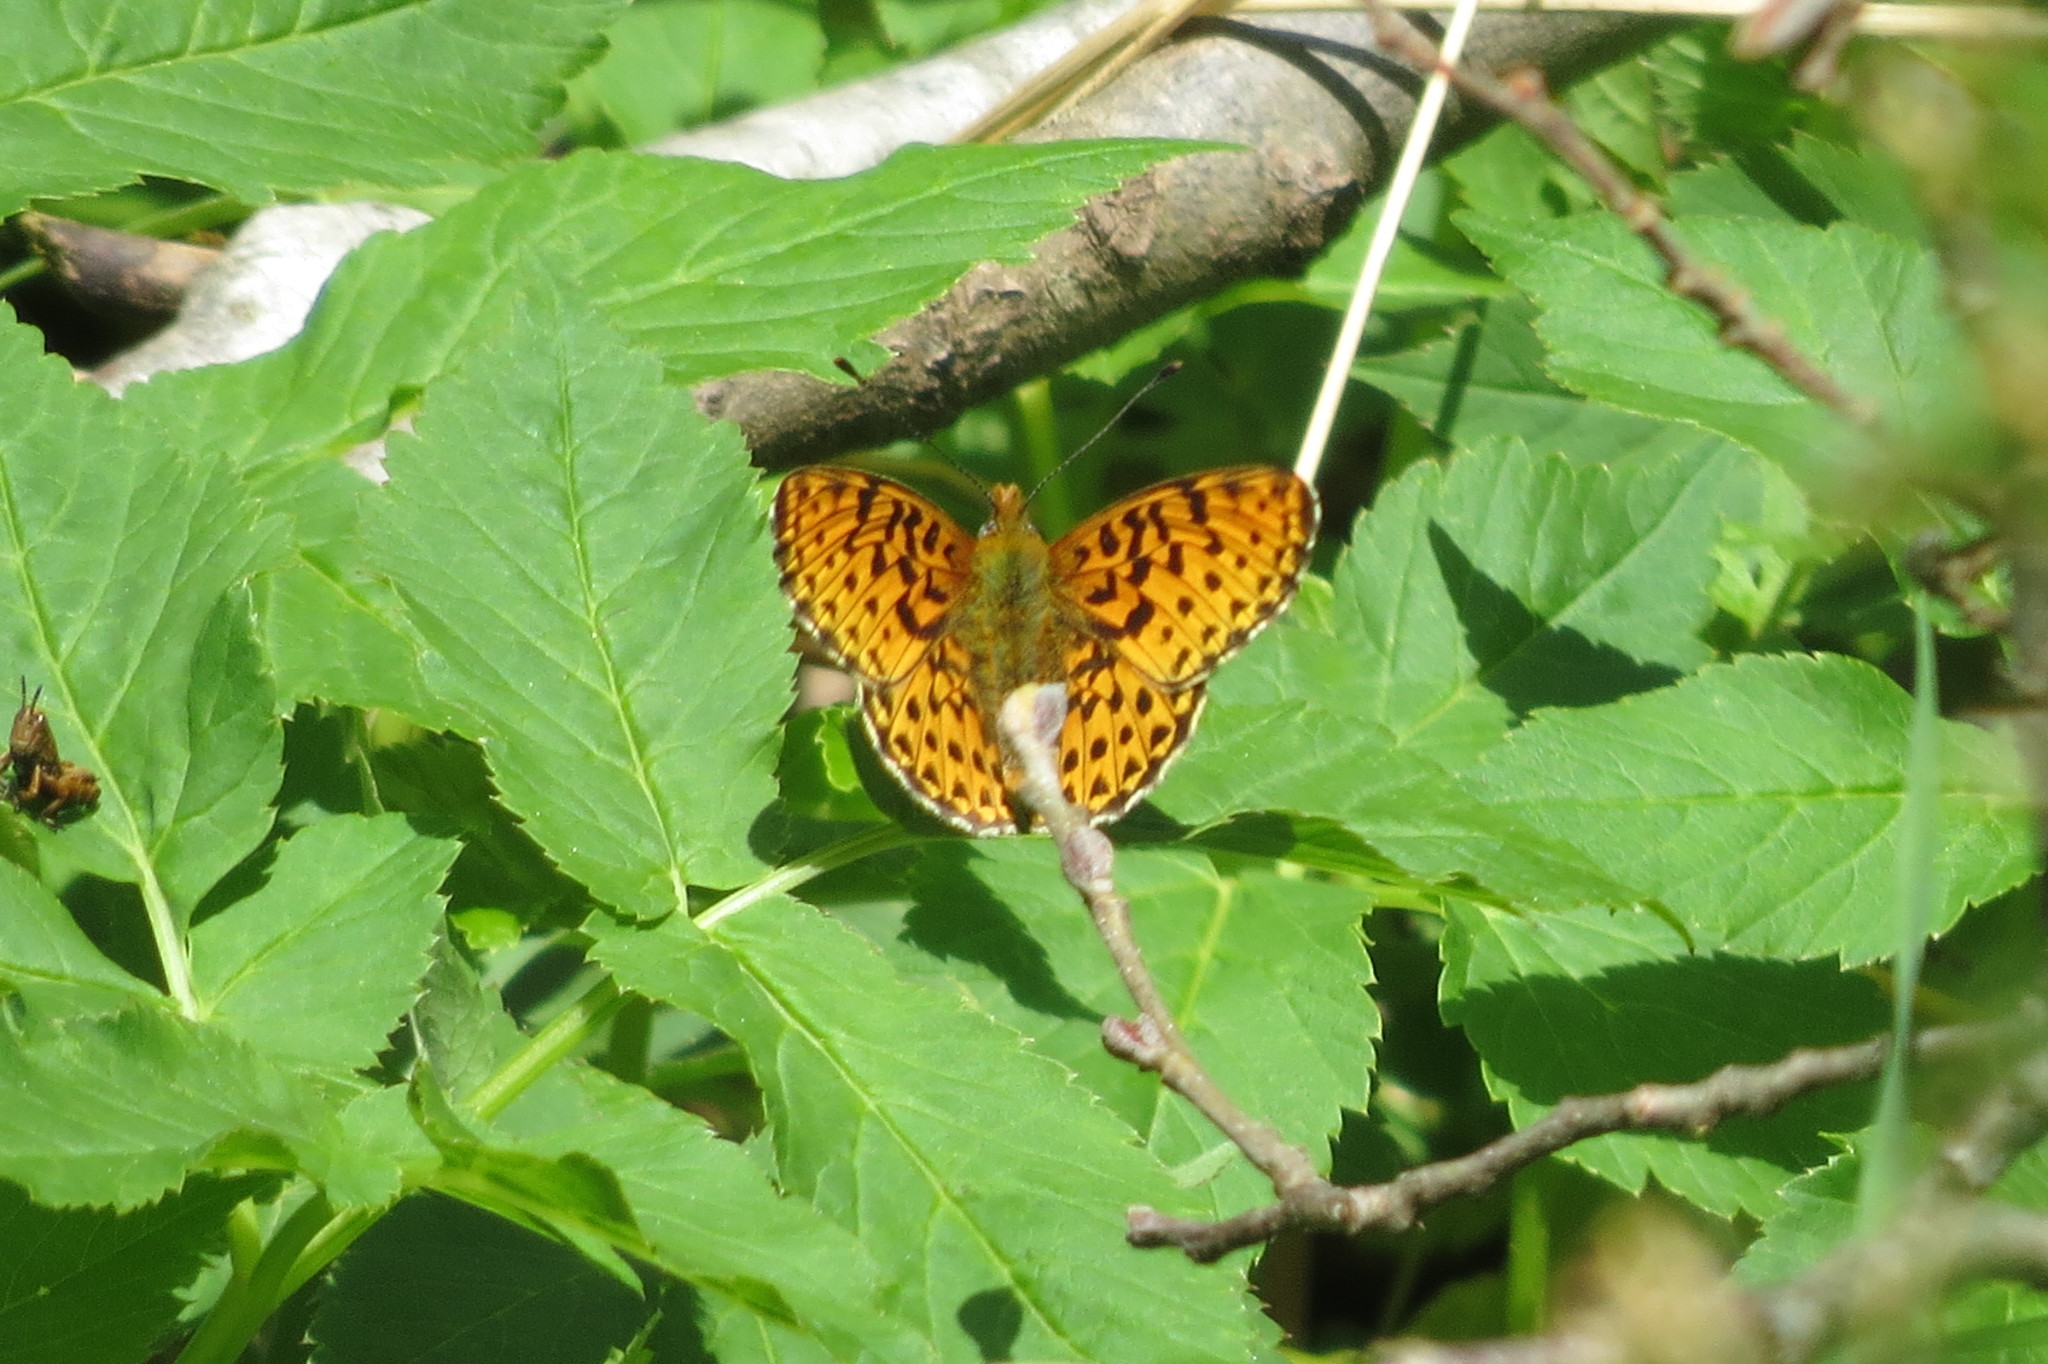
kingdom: Animalia
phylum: Arthropoda
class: Insecta
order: Lepidoptera
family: Nymphalidae
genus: Clossiana
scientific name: Clossiana euphrosyne
